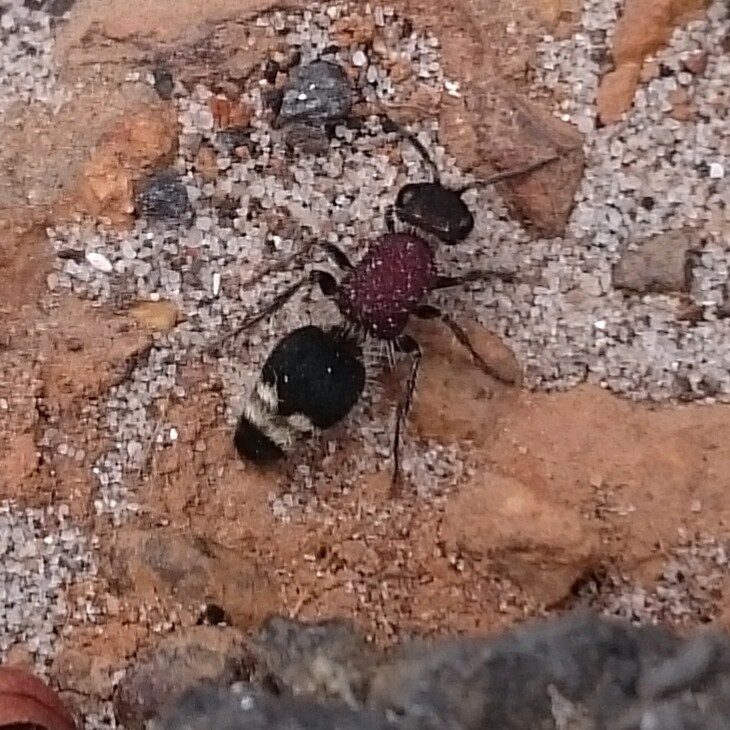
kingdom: Animalia
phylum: Arthropoda
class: Insecta
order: Hymenoptera
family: Mutillidae
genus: Mimecomutilla
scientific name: Mimecomutilla renominanda
